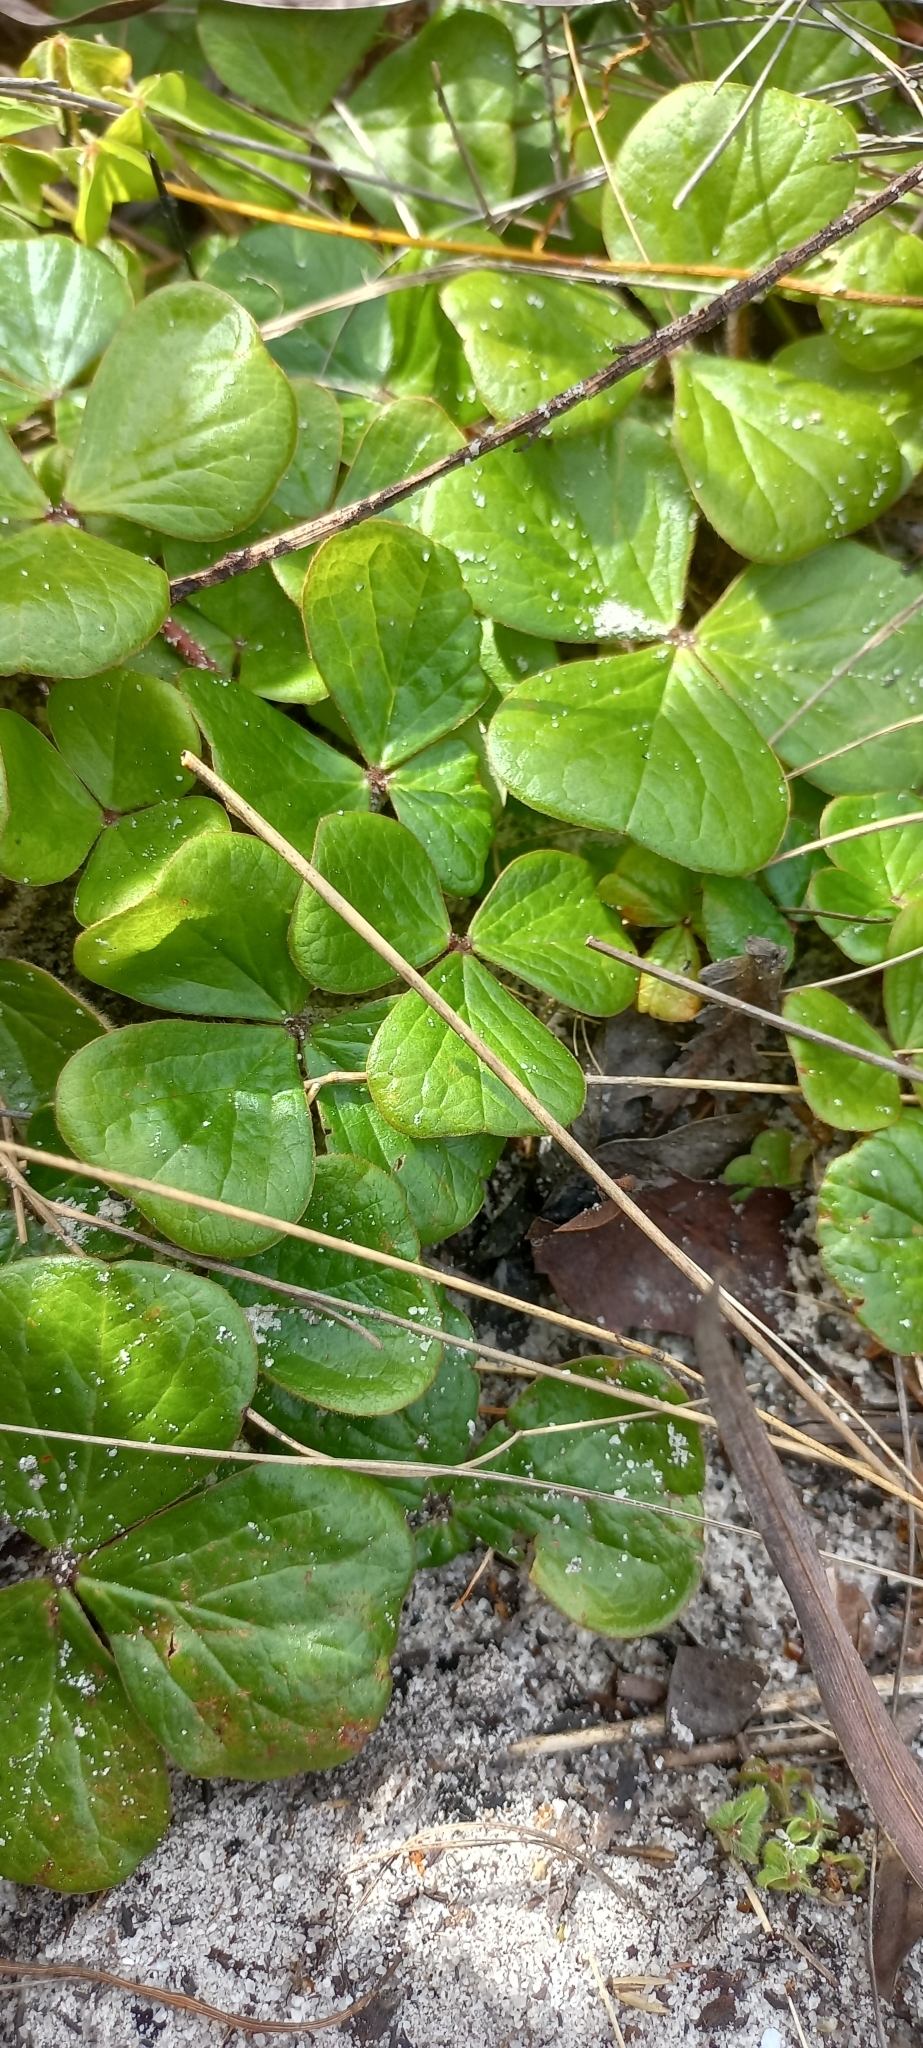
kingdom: Plantae
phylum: Tracheophyta
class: Magnoliopsida
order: Oxalidales
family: Oxalidaceae
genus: Oxalis
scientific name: Oxalis truncatula
